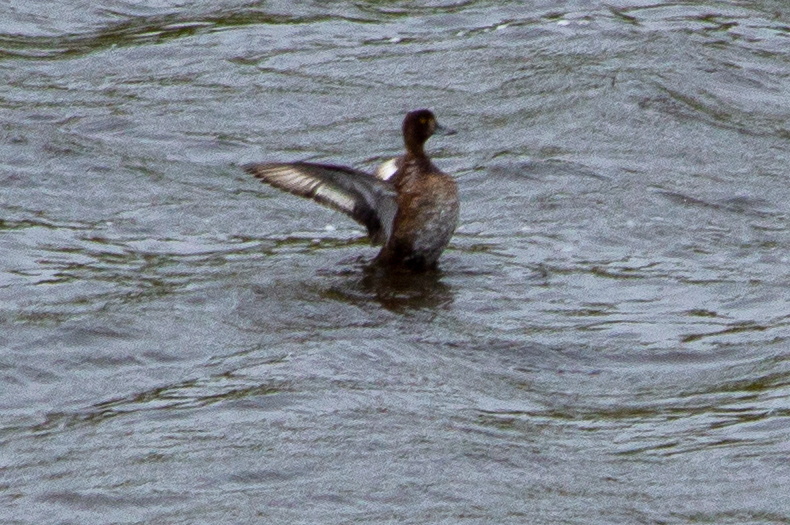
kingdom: Animalia
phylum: Chordata
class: Aves
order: Anseriformes
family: Anatidae
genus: Aythya
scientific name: Aythya affinis
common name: Lesser scaup
